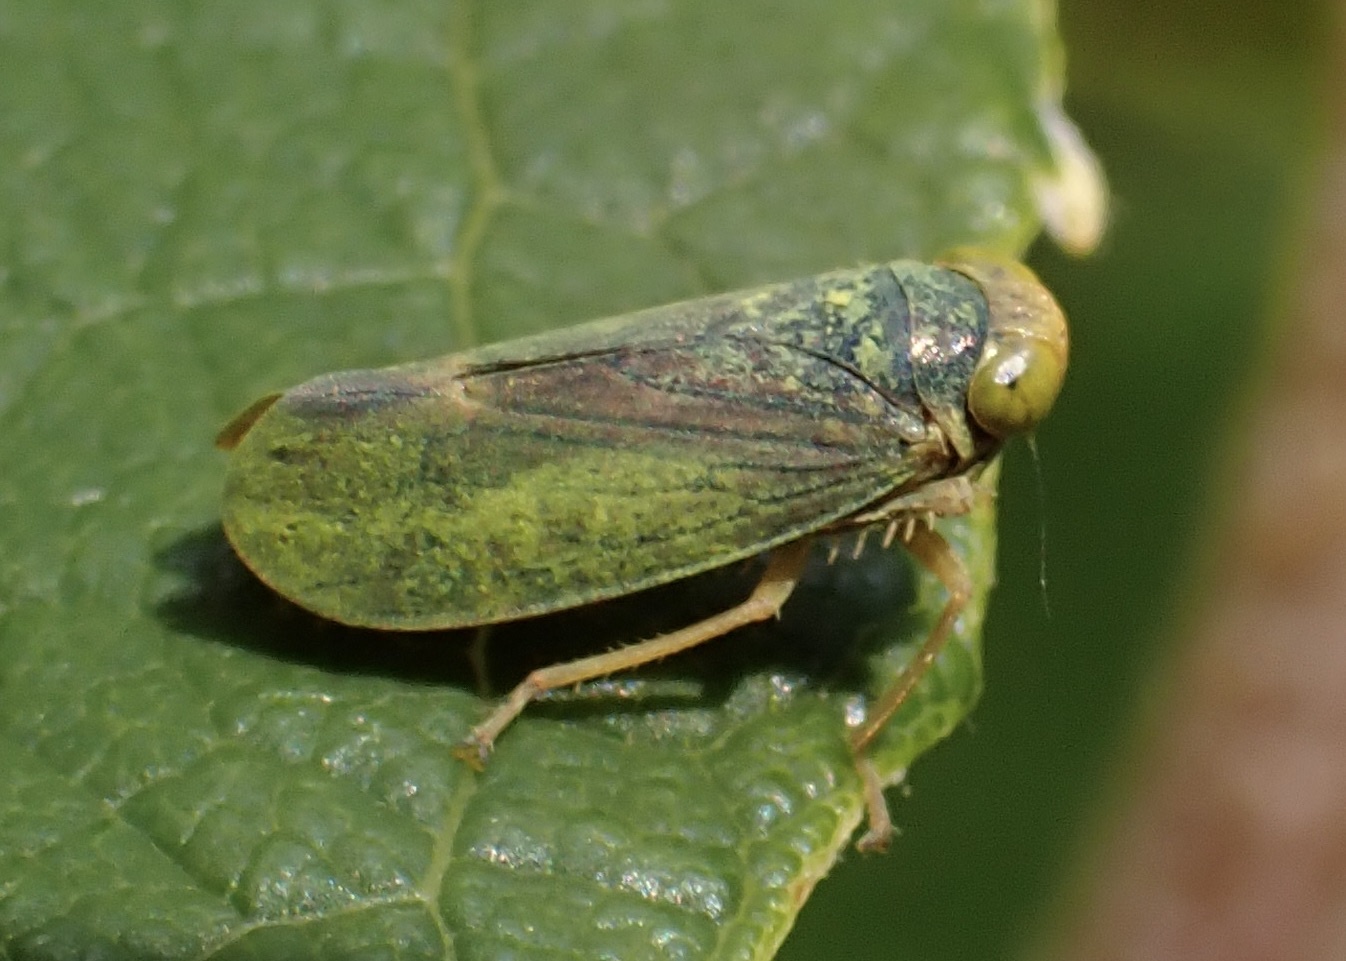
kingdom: Animalia
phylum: Arthropoda
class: Insecta
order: Hemiptera
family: Cicadellidae
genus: Jikradia
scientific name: Jikradia olitoria
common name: Coppery leafhopper
